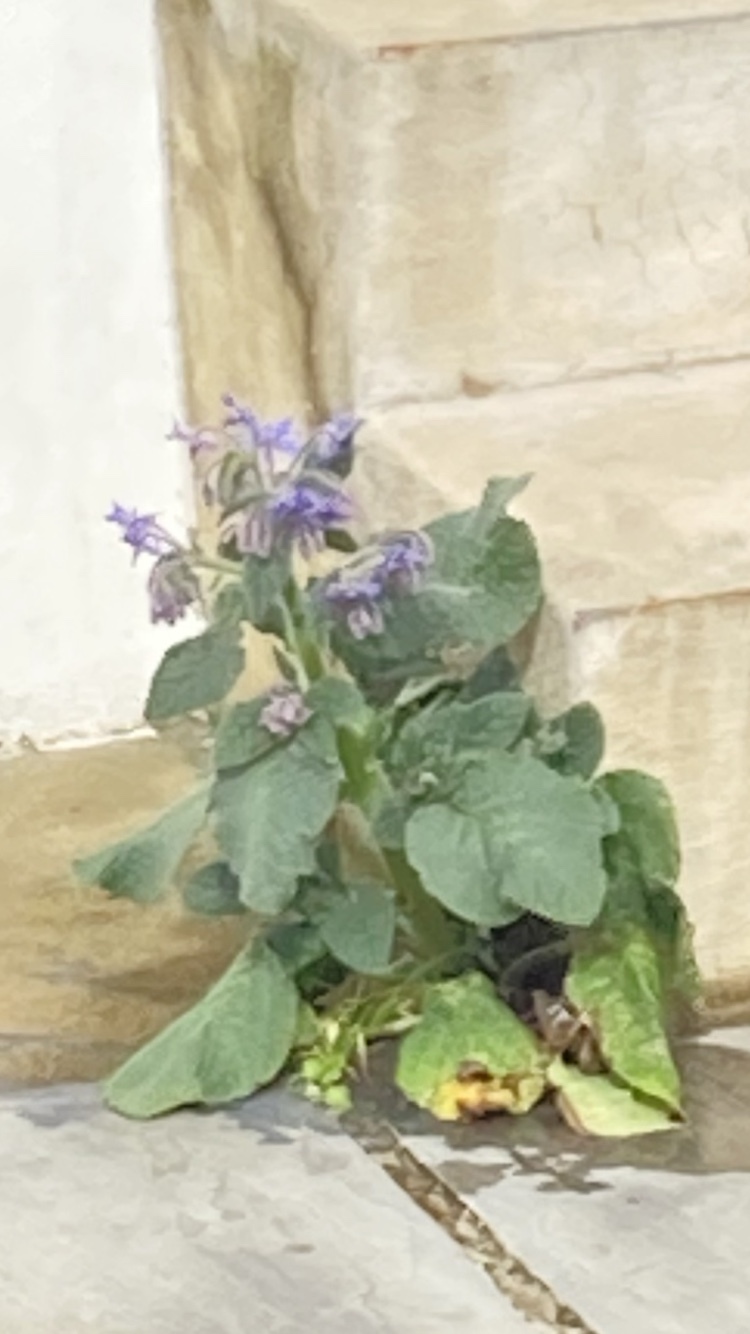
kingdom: Plantae
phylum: Tracheophyta
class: Magnoliopsida
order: Boraginales
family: Boraginaceae
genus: Borago
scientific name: Borago officinalis
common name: Borage
